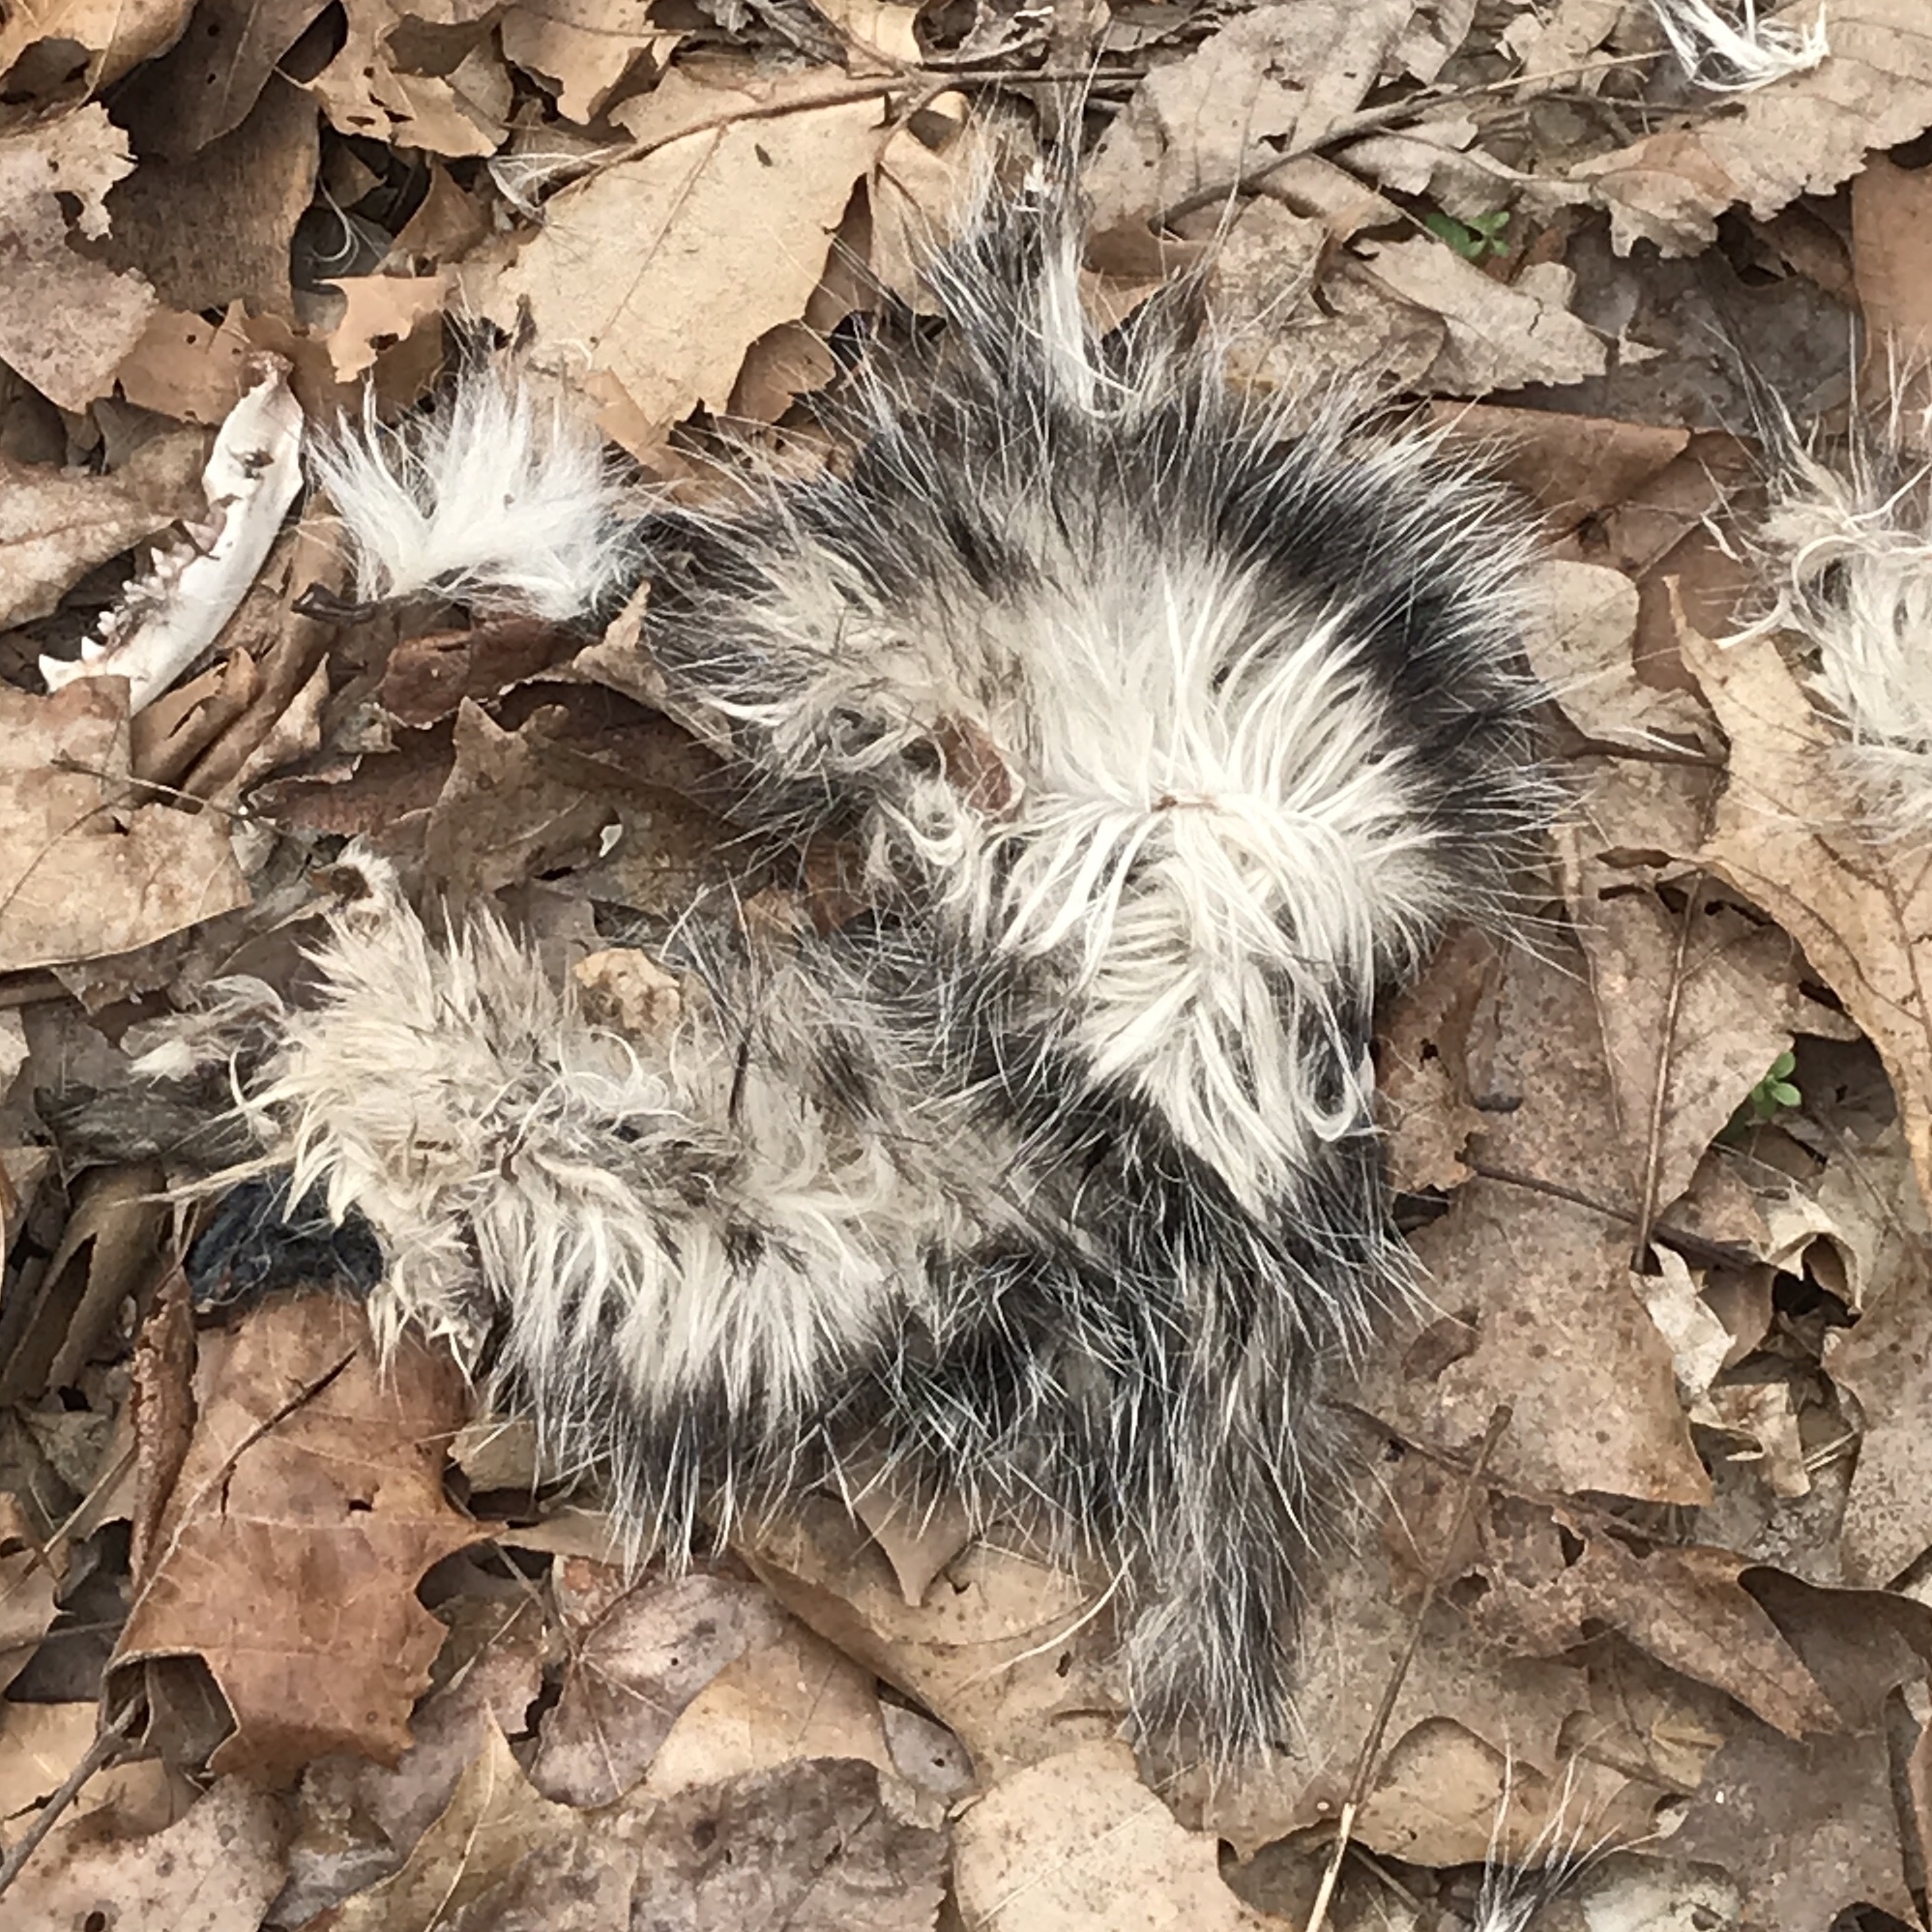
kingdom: Animalia
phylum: Chordata
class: Mammalia
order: Didelphimorphia
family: Didelphidae
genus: Didelphis
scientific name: Didelphis virginiana
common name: Virginia opossum
